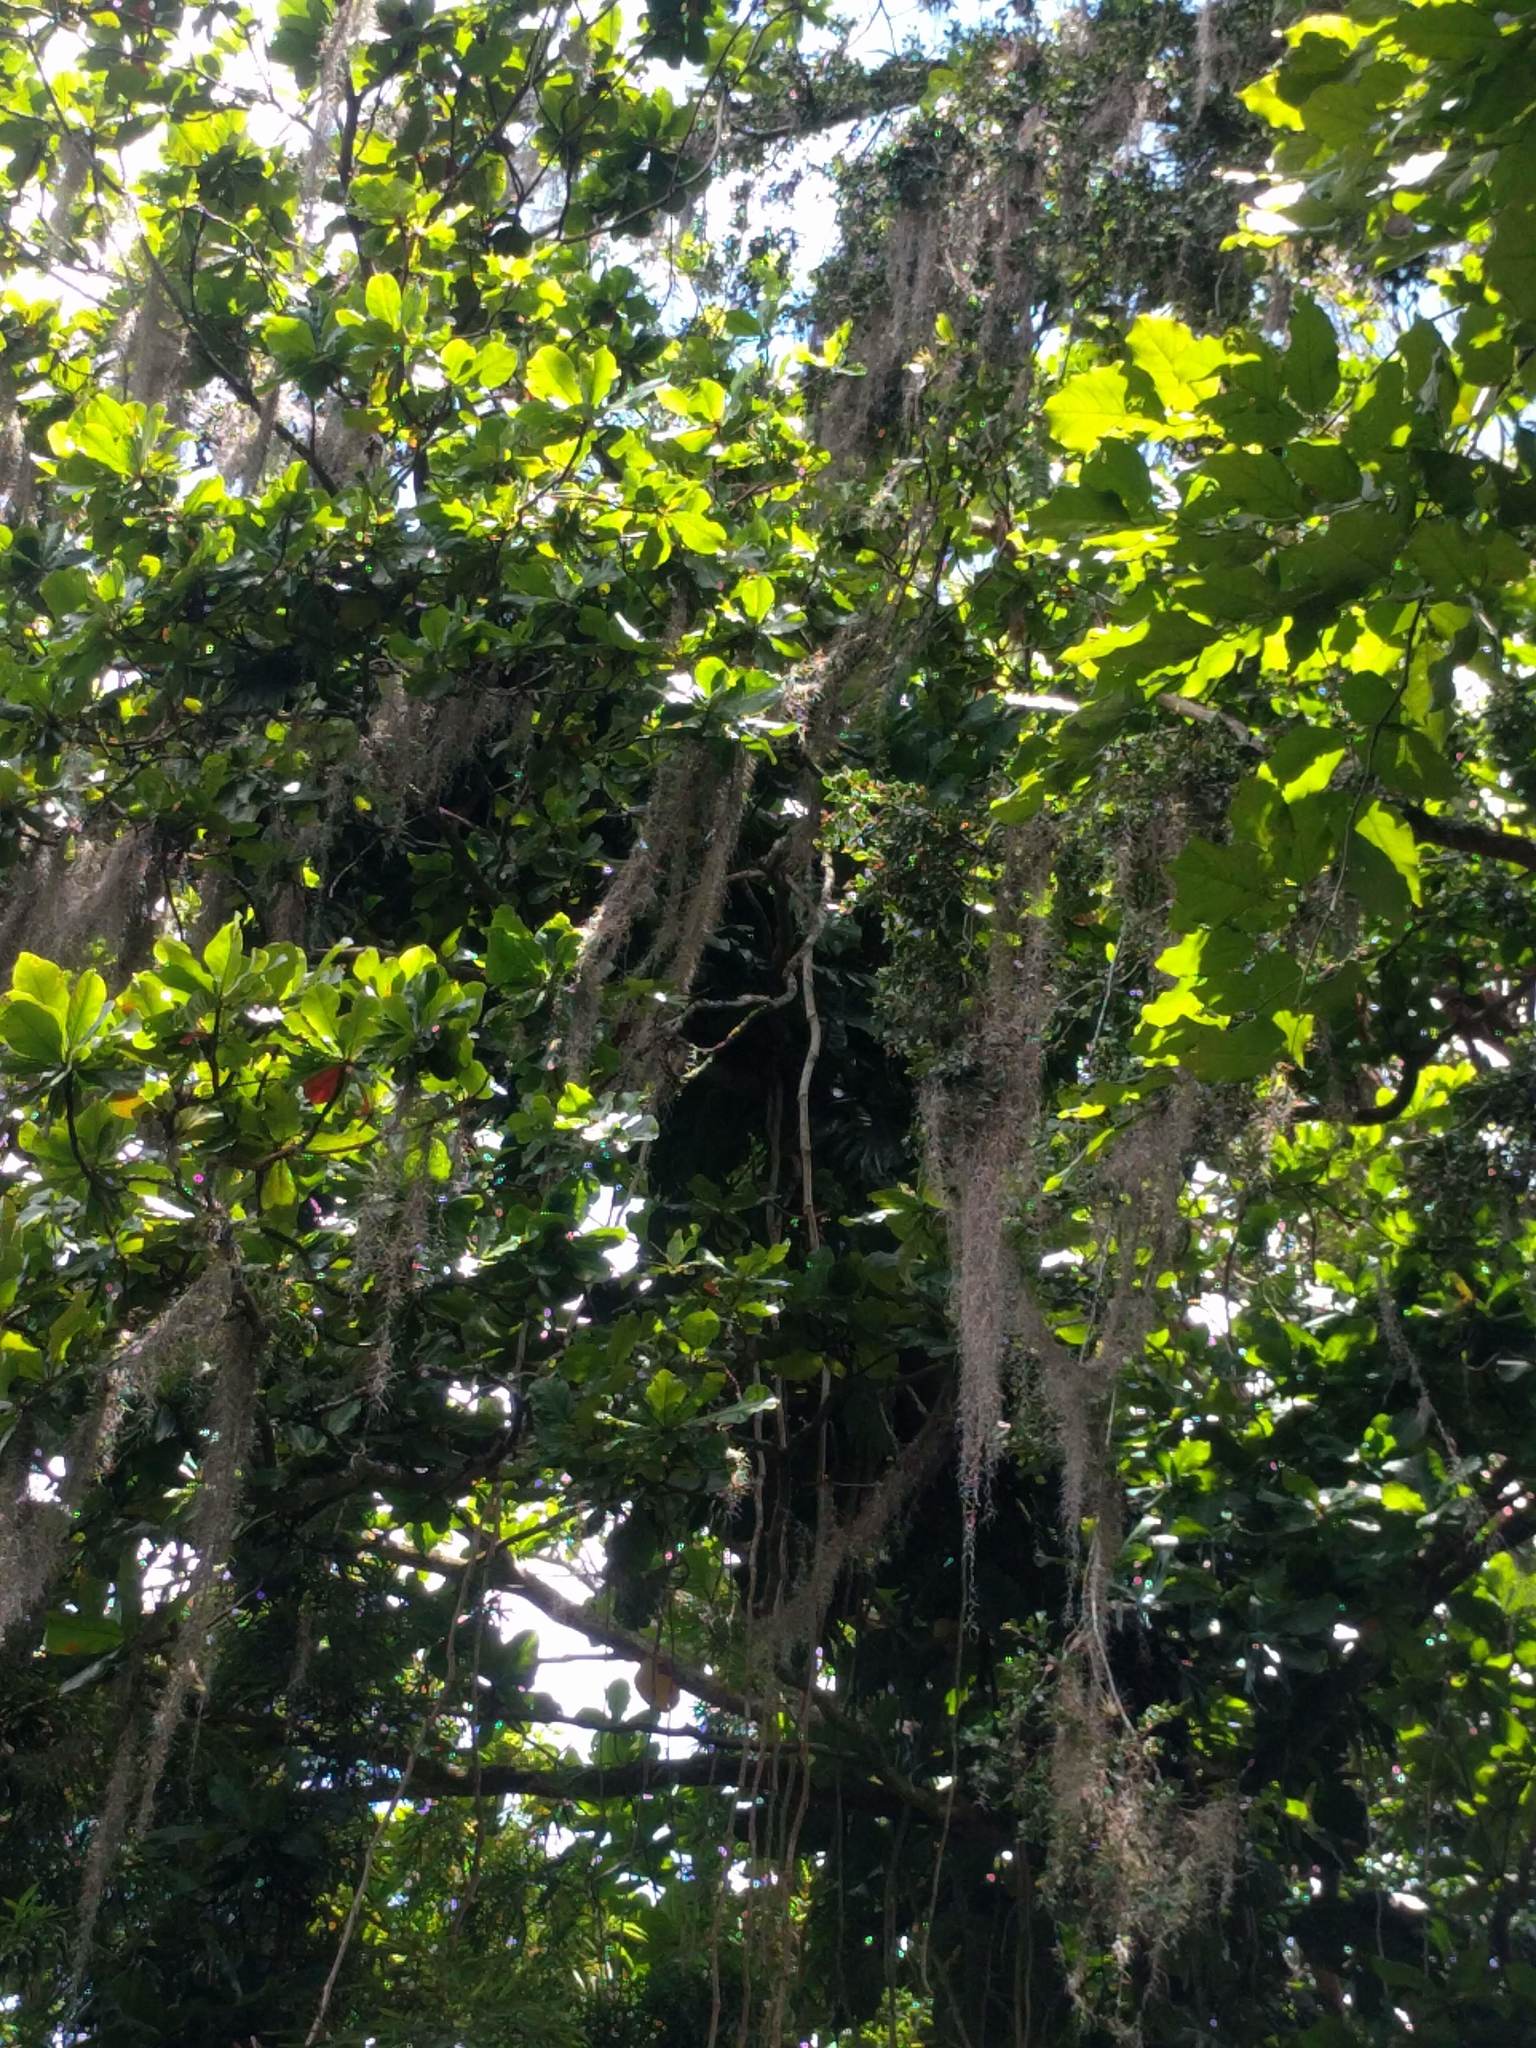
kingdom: Plantae
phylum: Tracheophyta
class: Liliopsida
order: Poales
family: Bromeliaceae
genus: Tillandsia
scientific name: Tillandsia usneoides
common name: Spanish moss
